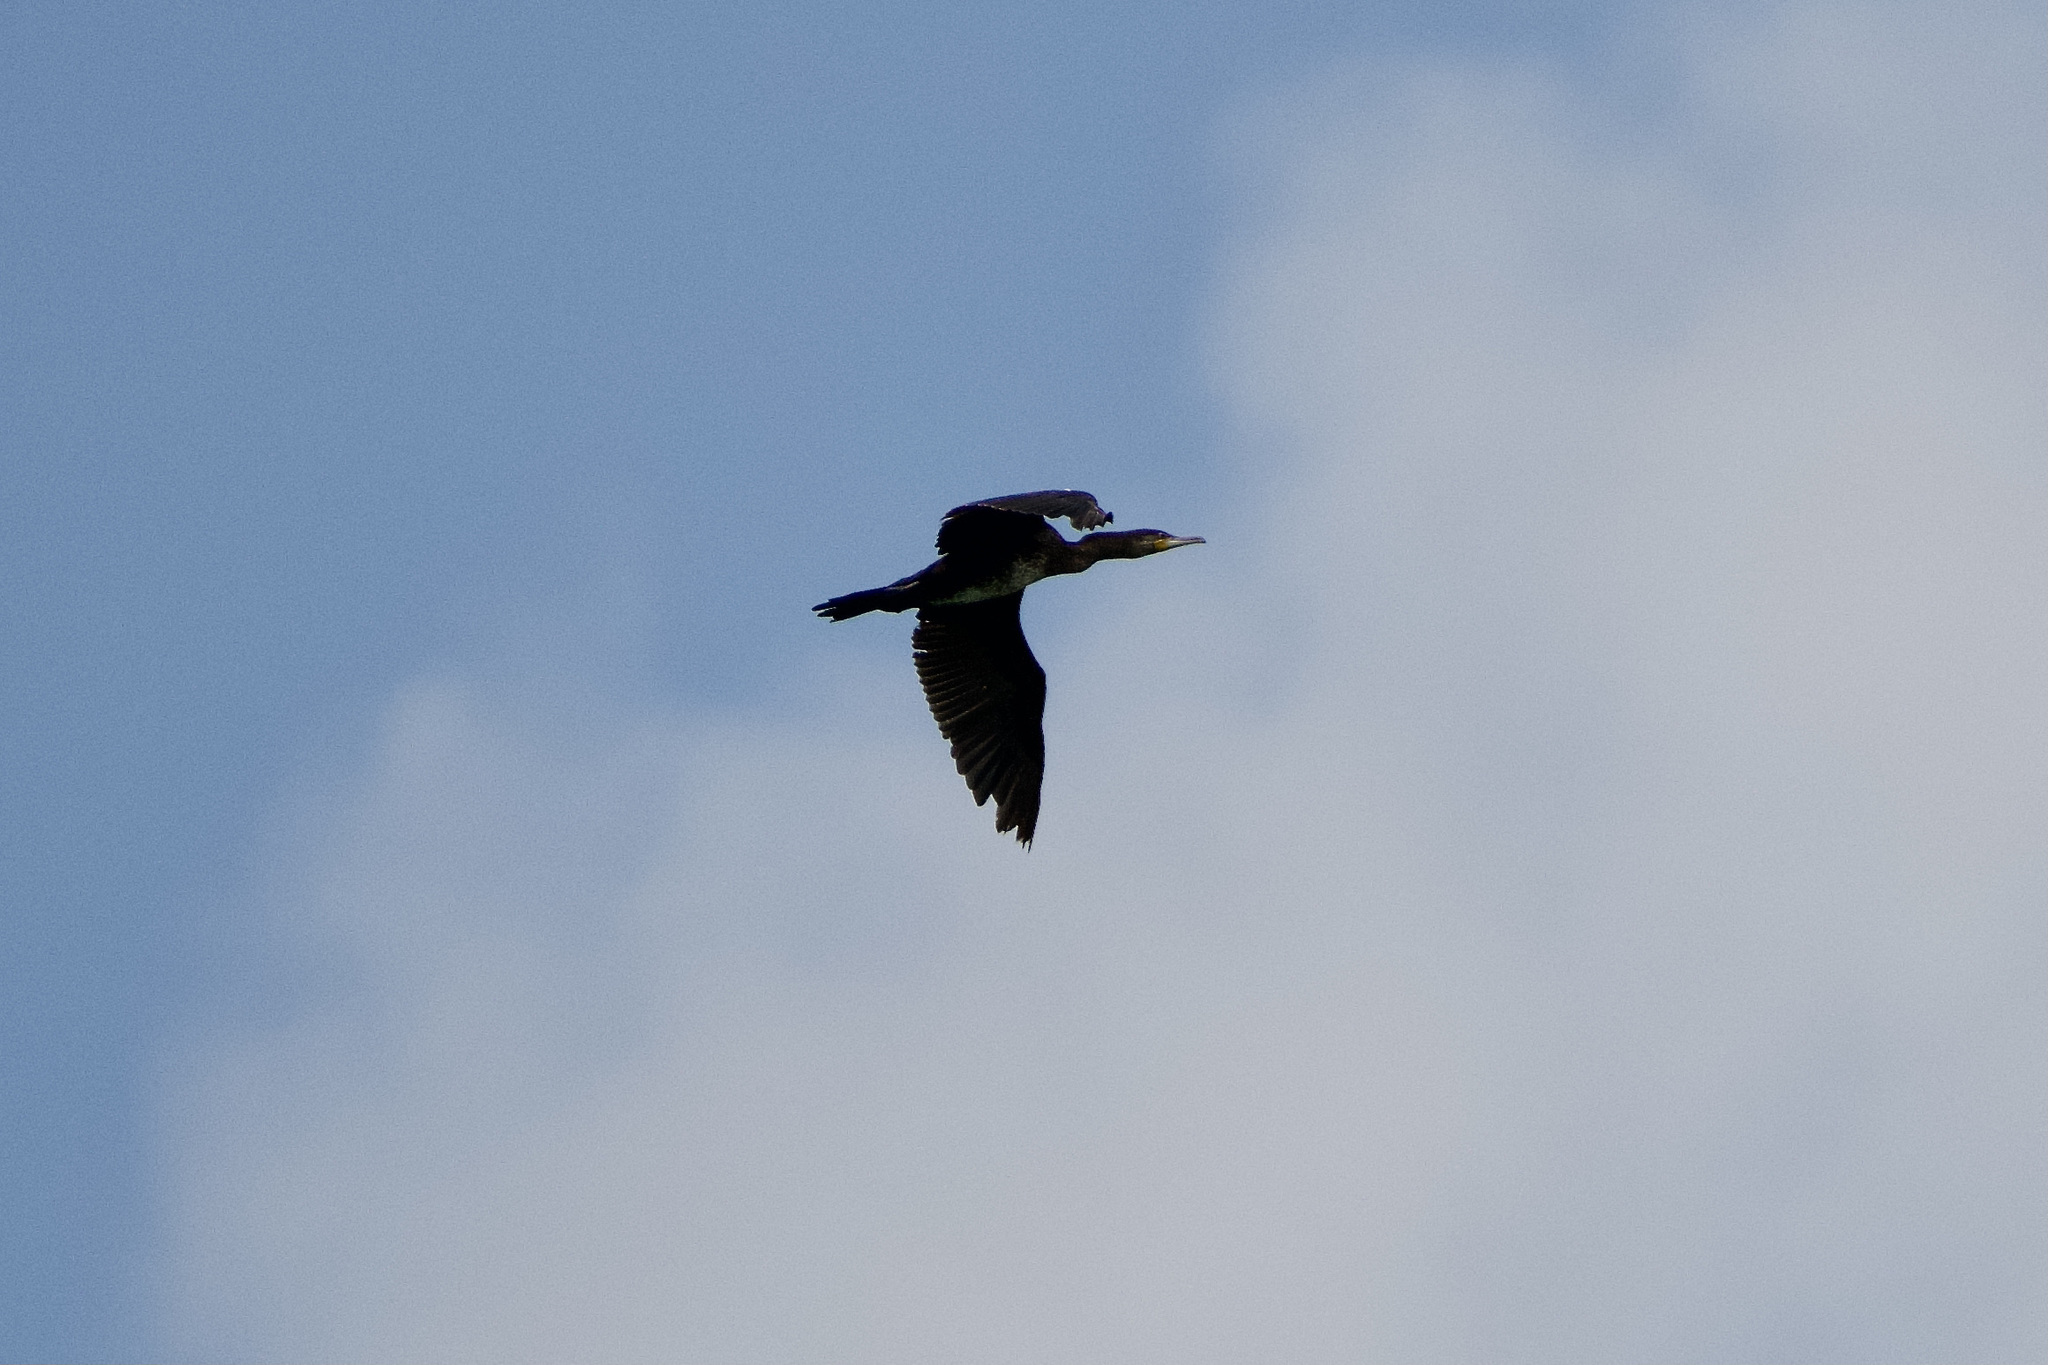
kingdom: Animalia
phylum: Chordata
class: Aves
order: Suliformes
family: Phalacrocoracidae
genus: Phalacrocorax
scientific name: Phalacrocorax carbo
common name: Great cormorant
